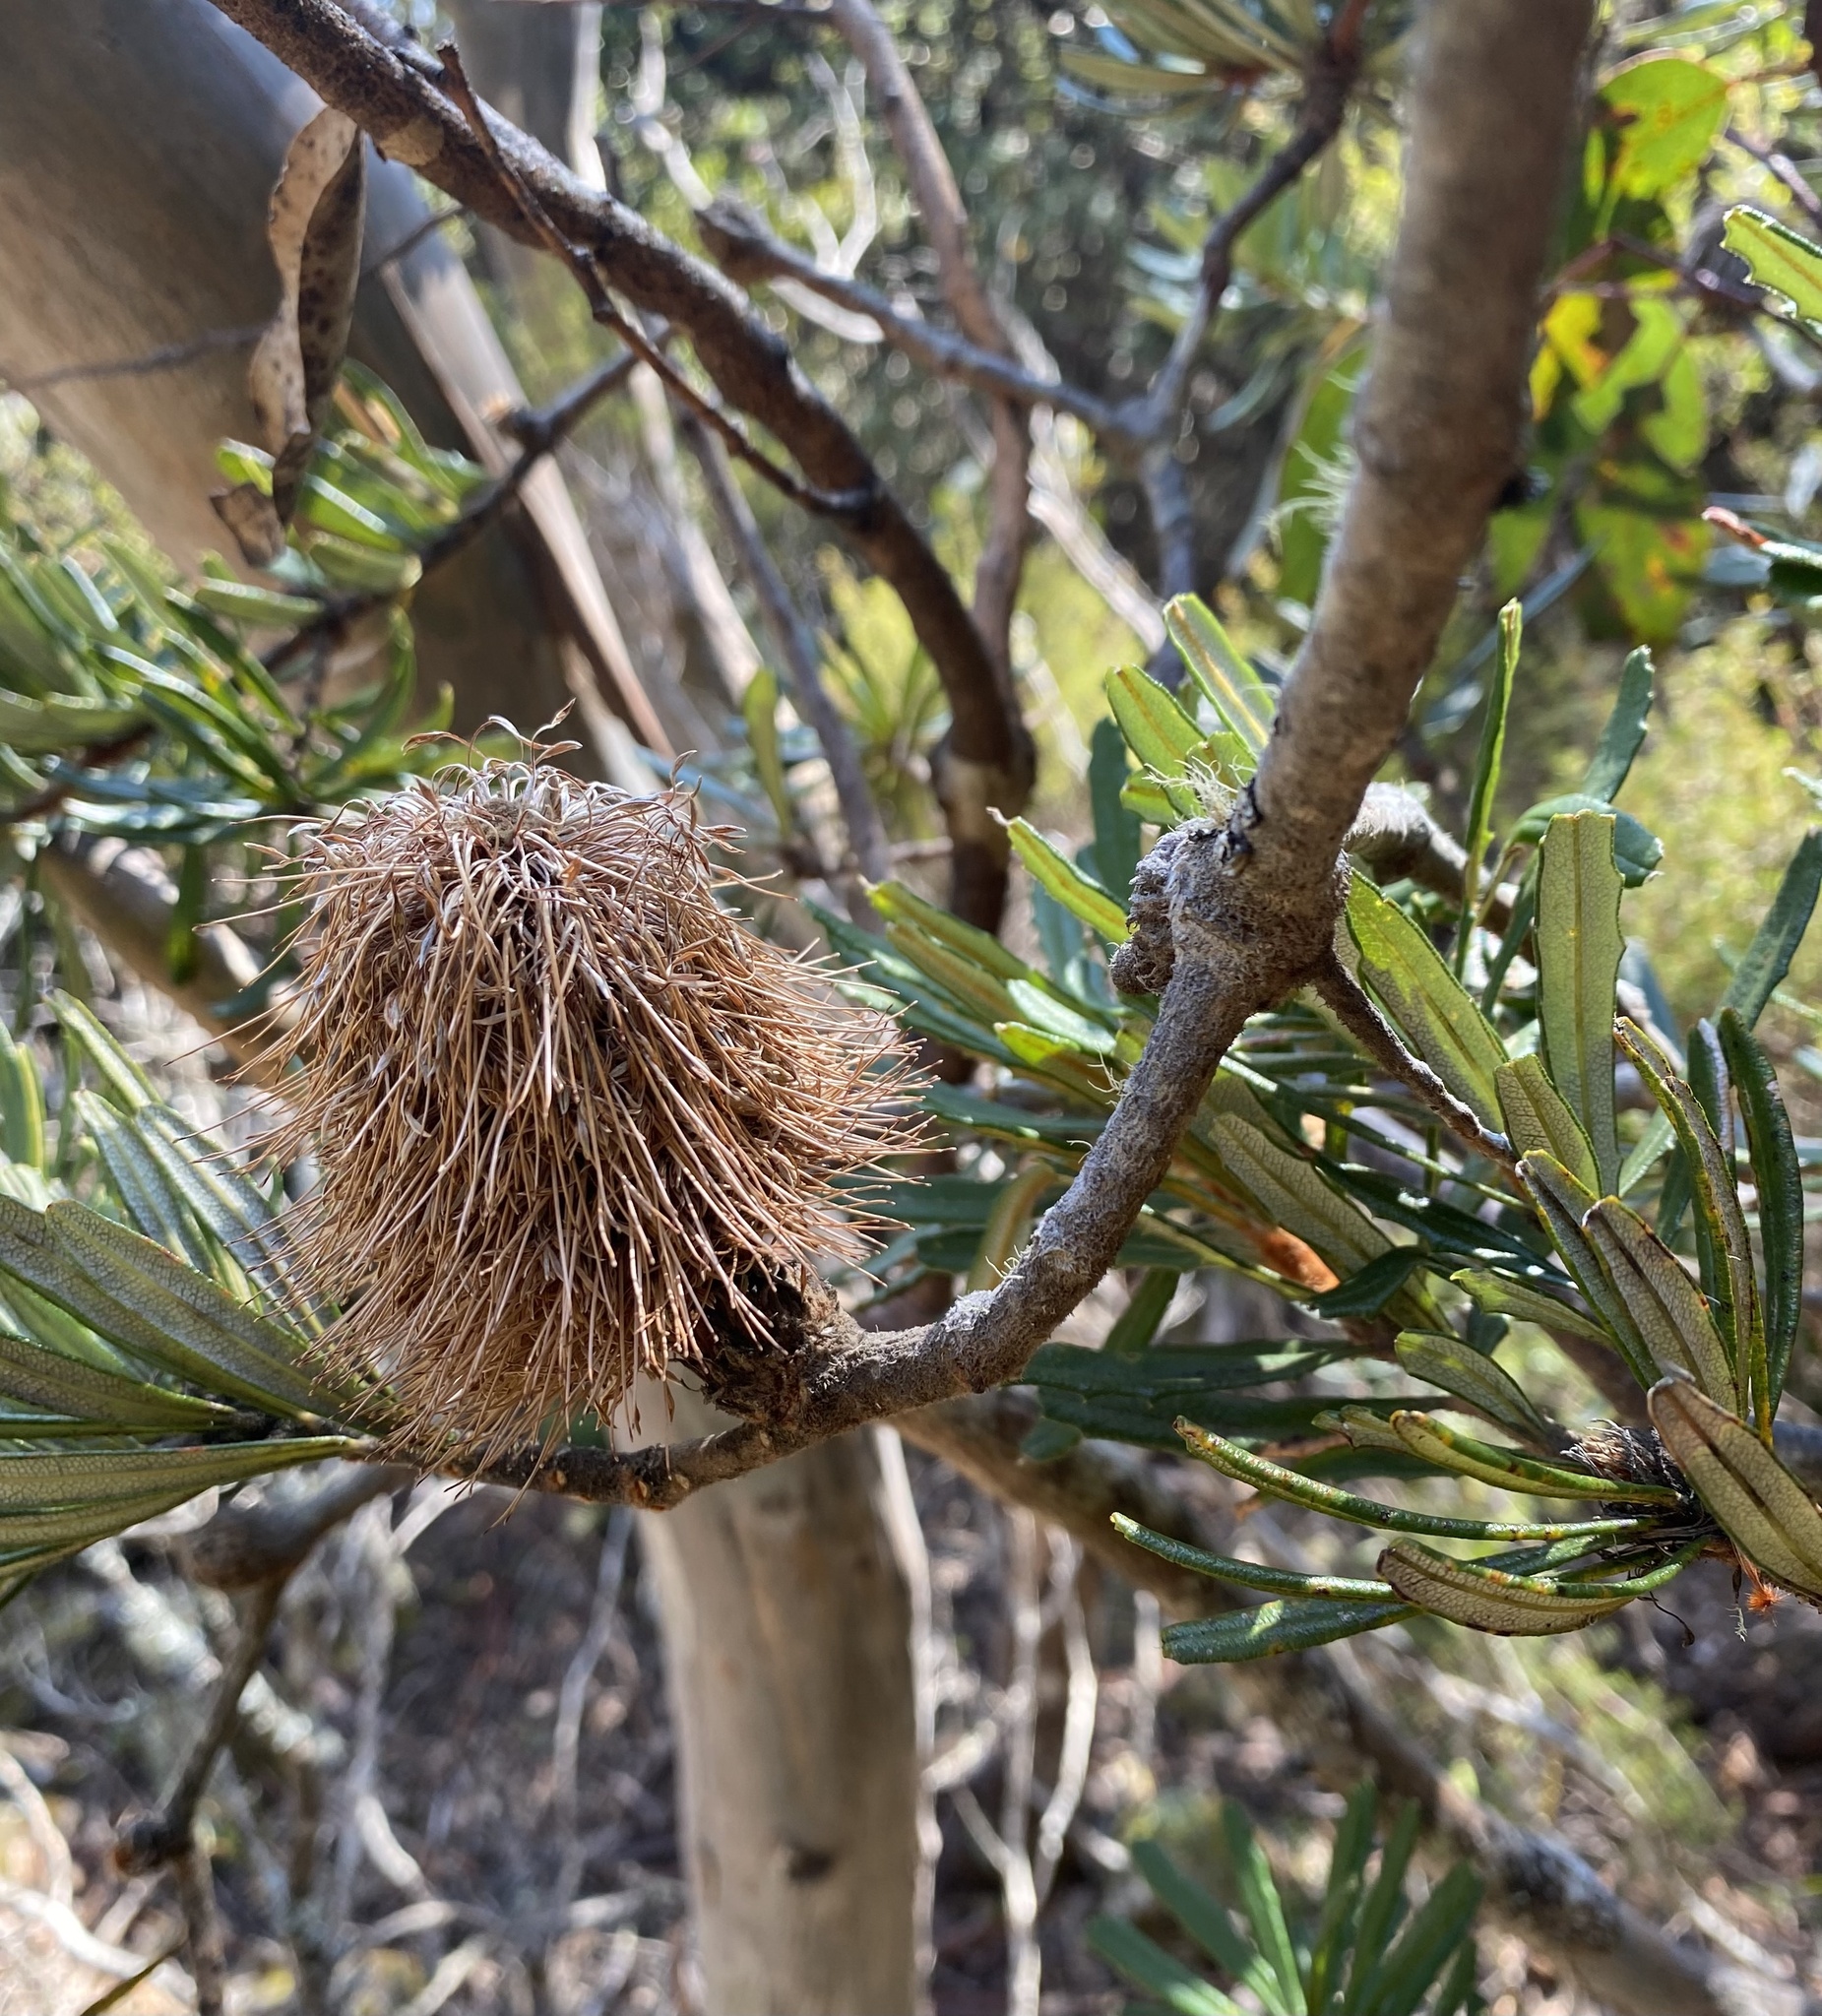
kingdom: Plantae
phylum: Tracheophyta
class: Magnoliopsida
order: Proteales
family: Proteaceae
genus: Banksia
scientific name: Banksia marginata
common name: Silver banksia
